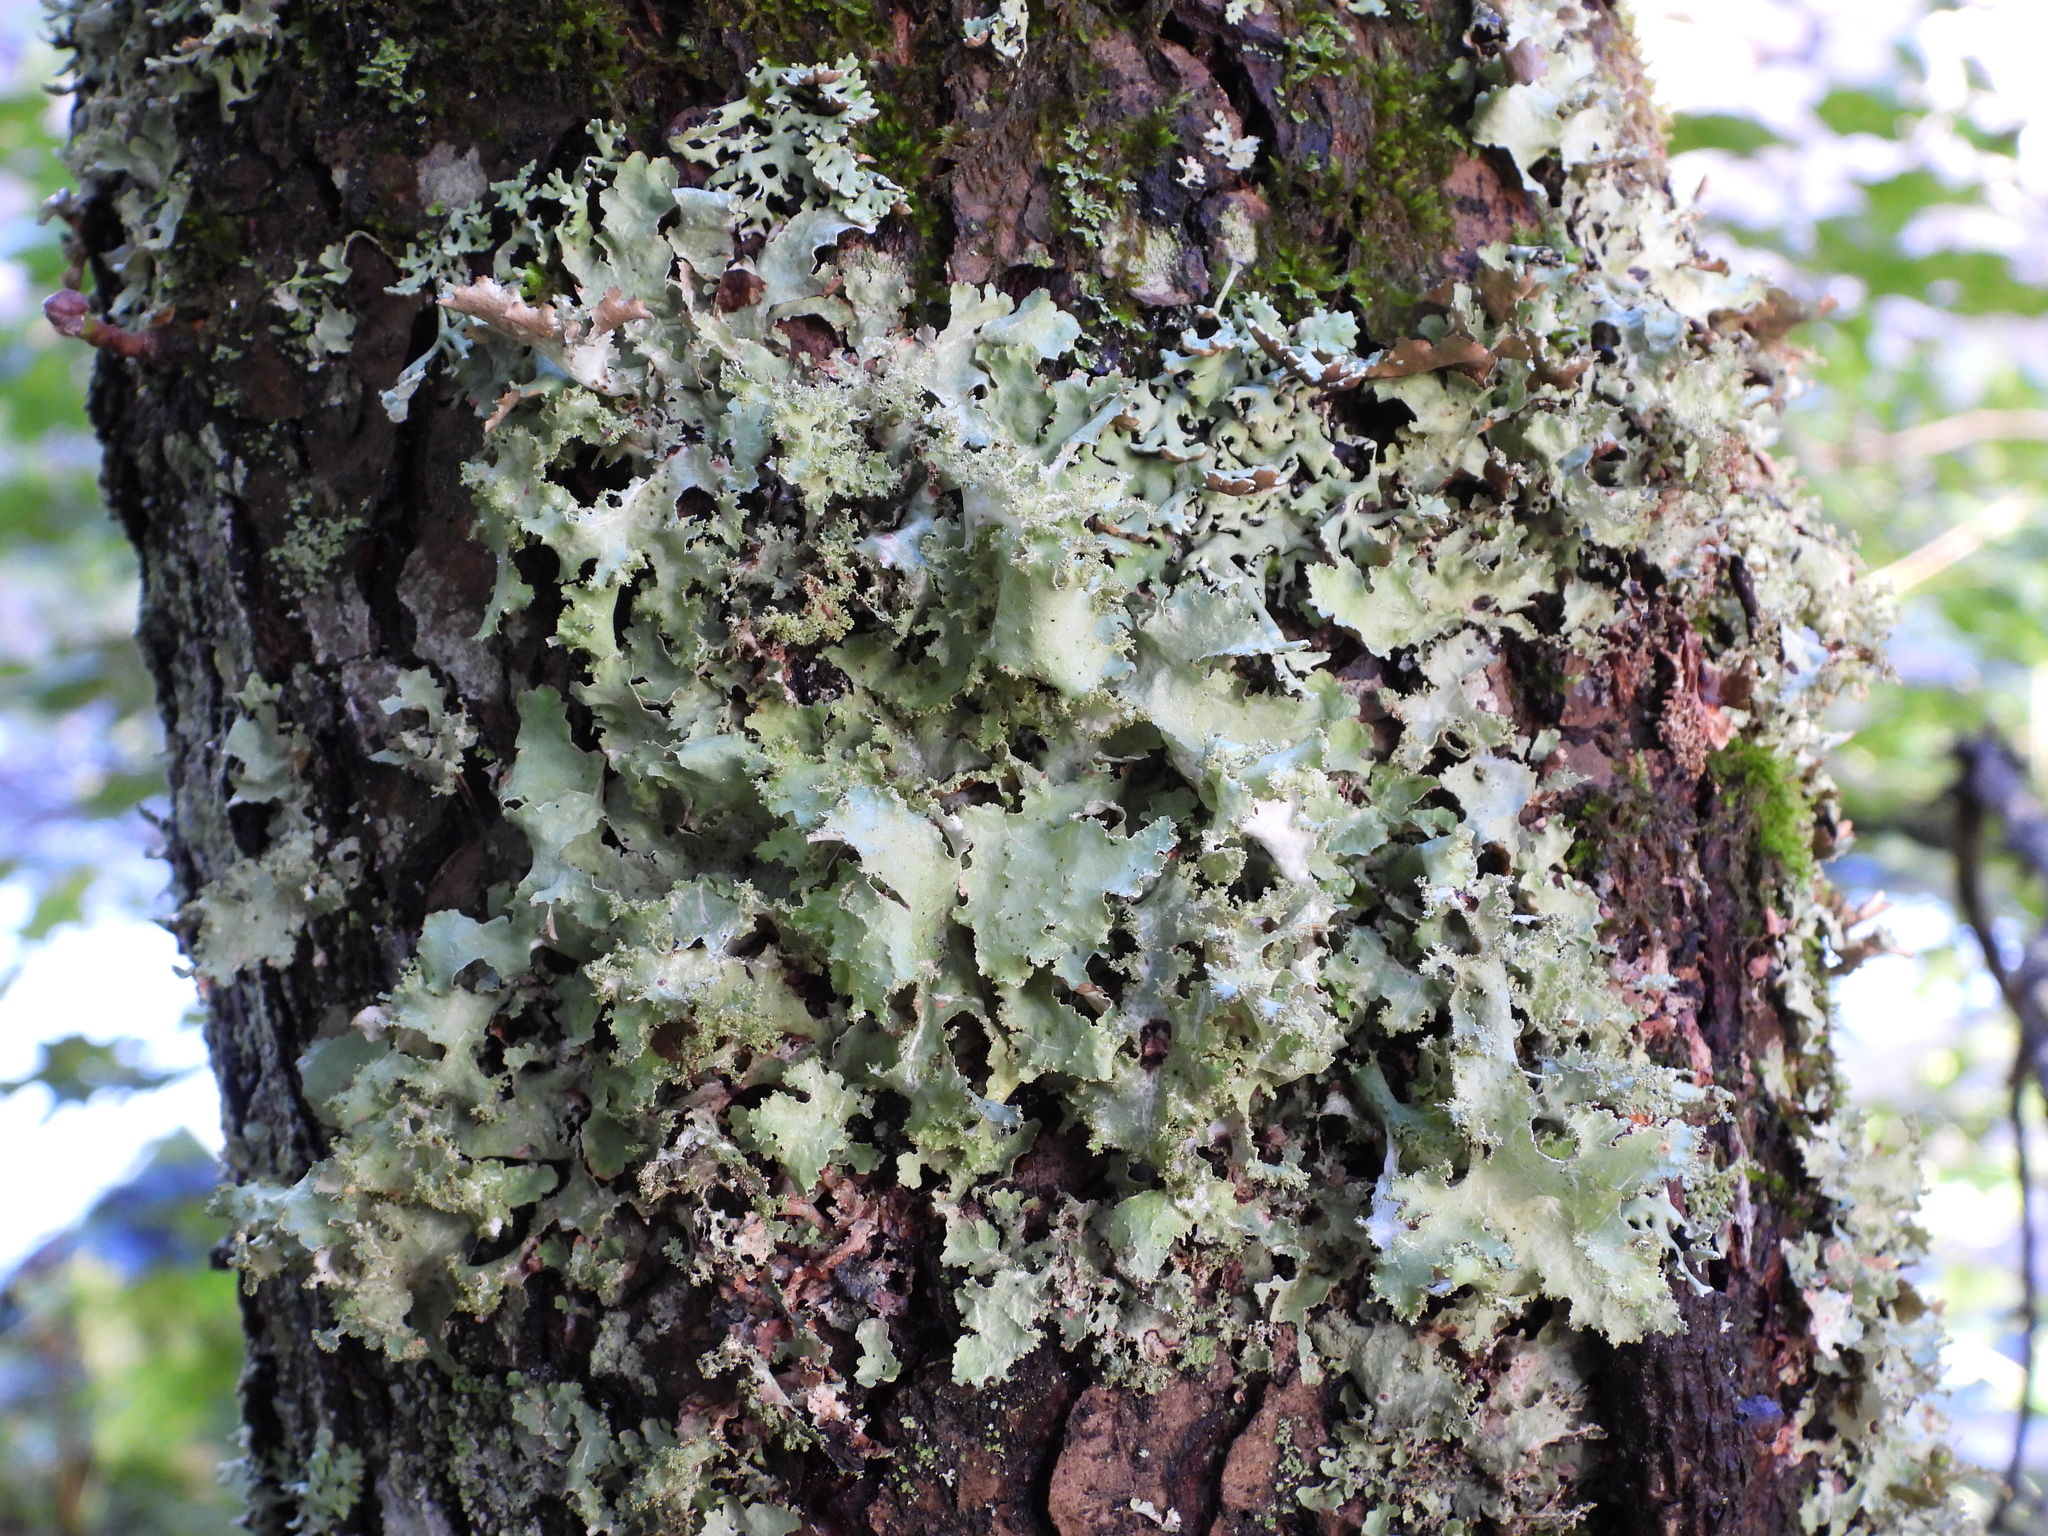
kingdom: Fungi
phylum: Ascomycota
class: Lecanoromycetes
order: Lecanorales
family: Parmeliaceae
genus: Platismatia
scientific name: Platismatia glauca
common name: Varied rag lichen
